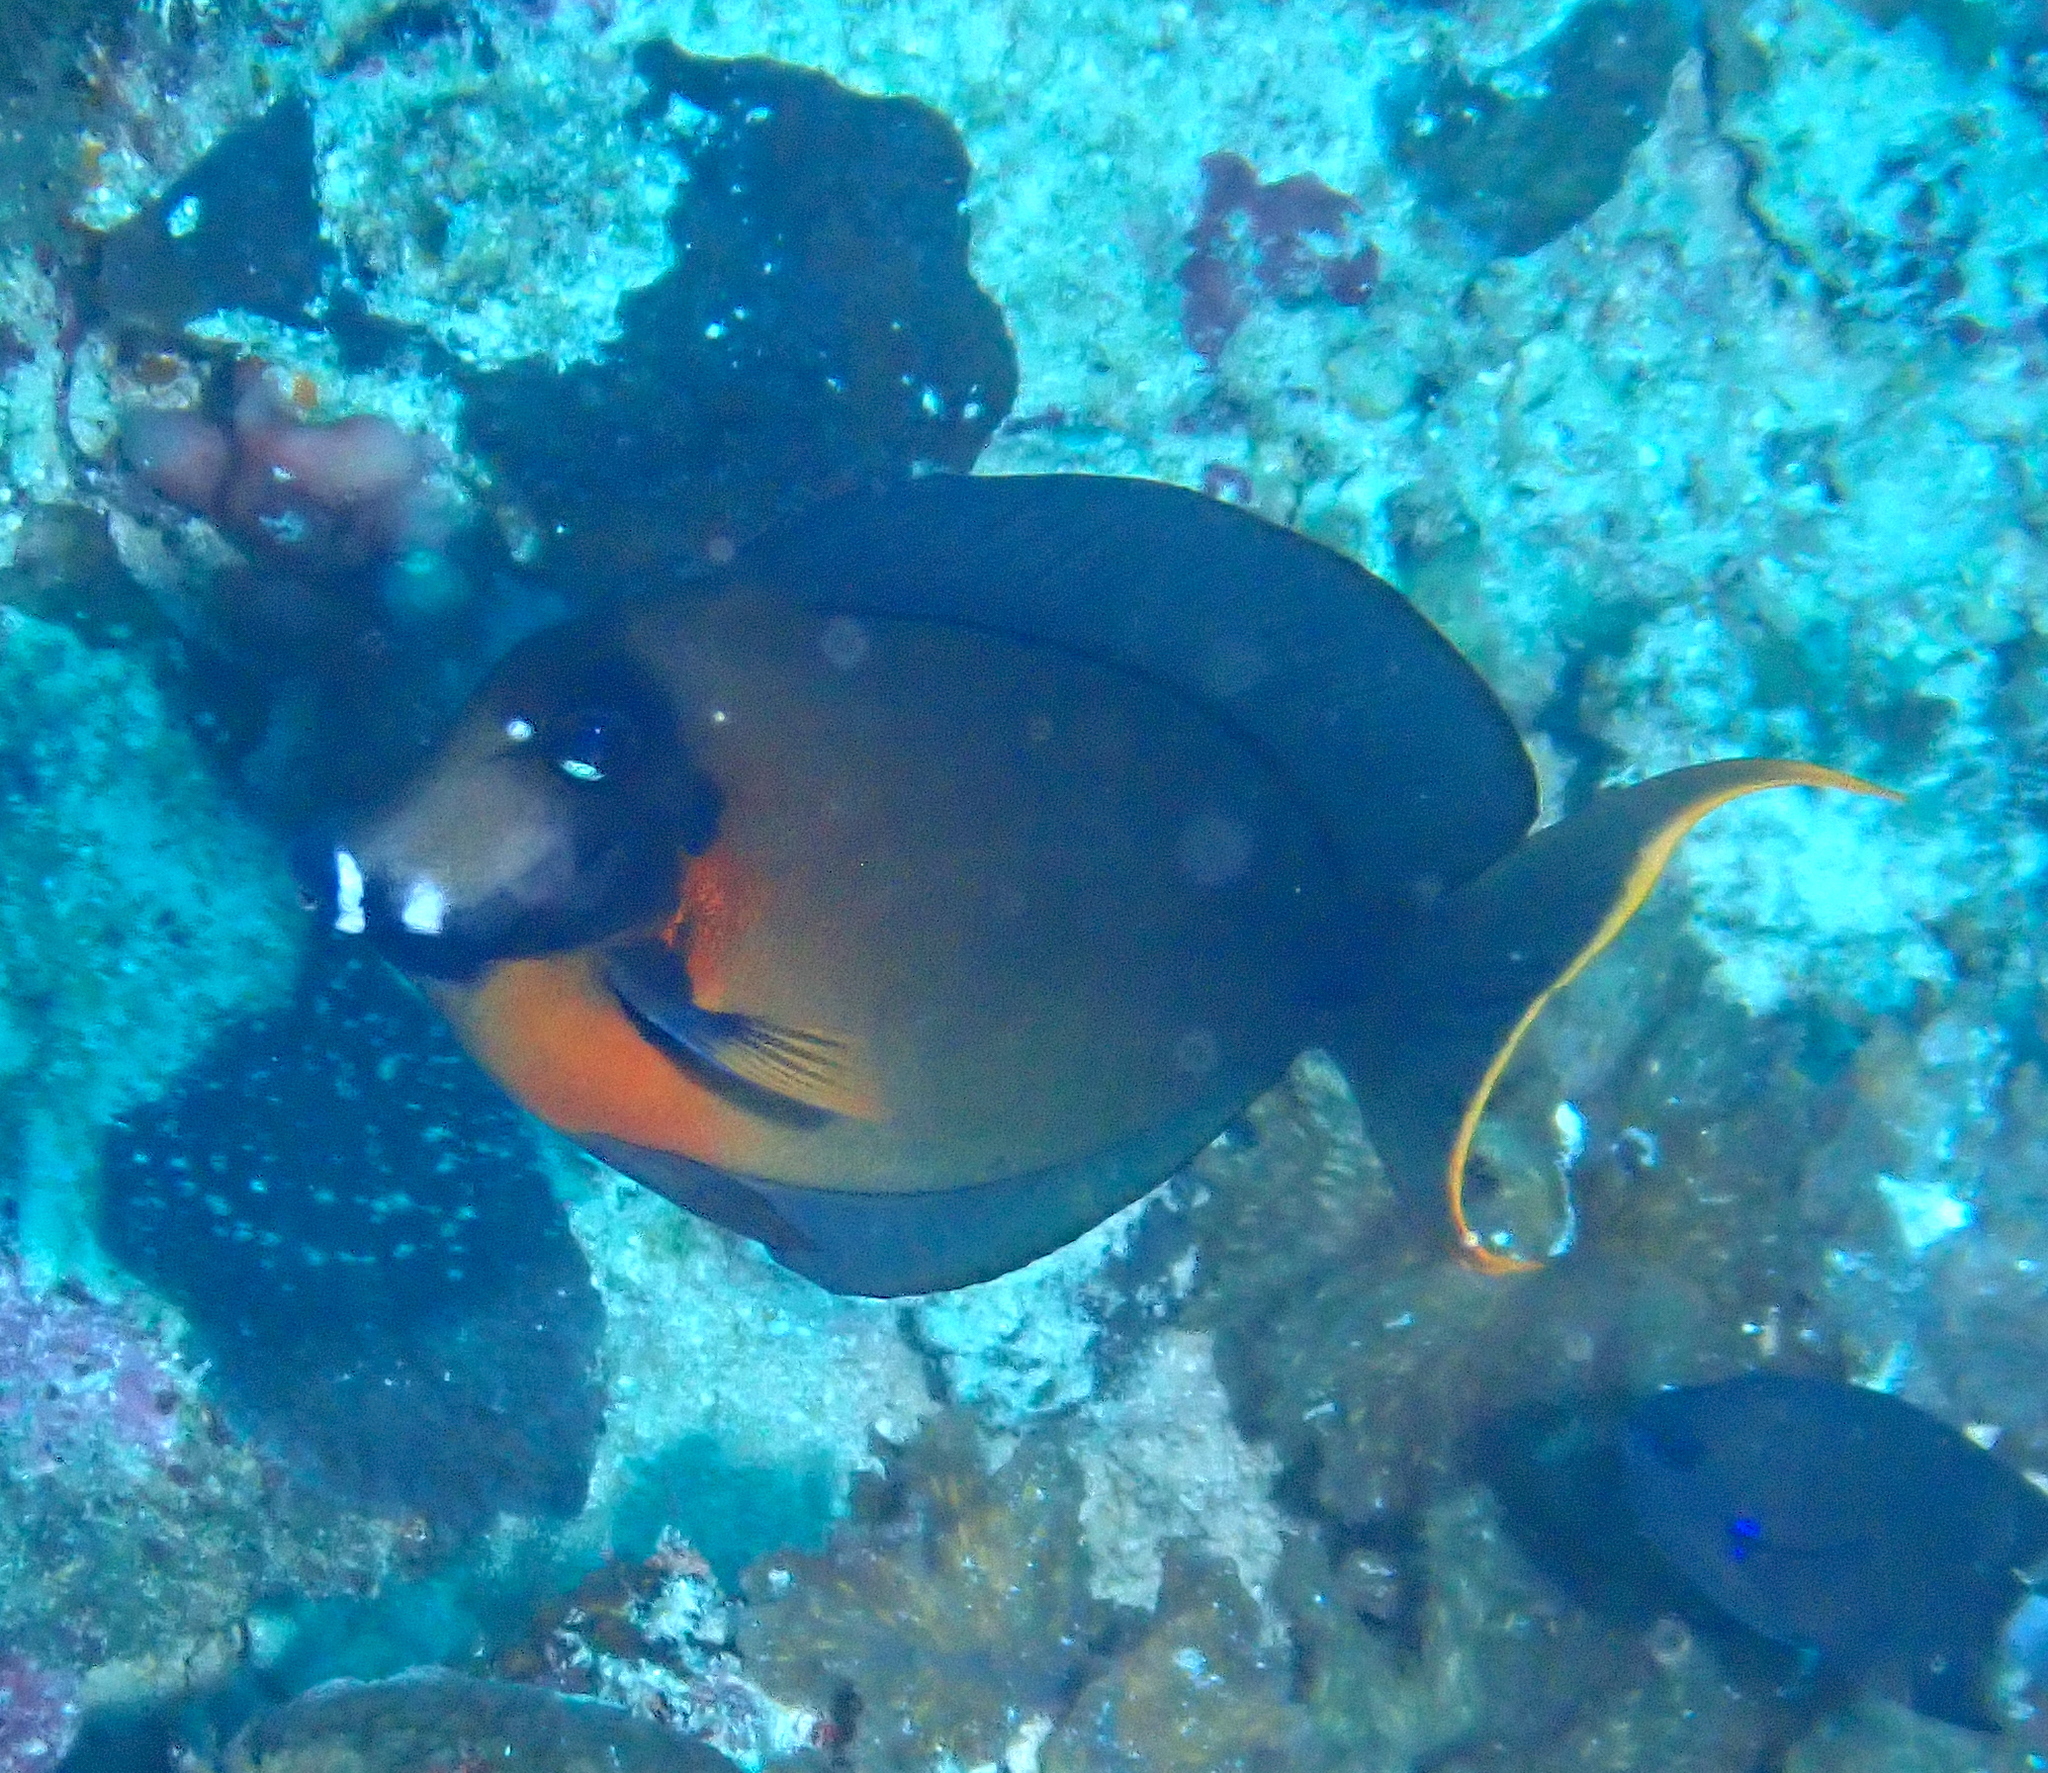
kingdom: Animalia
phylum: Chordata
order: Perciformes
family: Acanthuridae
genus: Acanthurus
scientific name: Acanthurus pyroferus
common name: Chocolate surgeonfish
